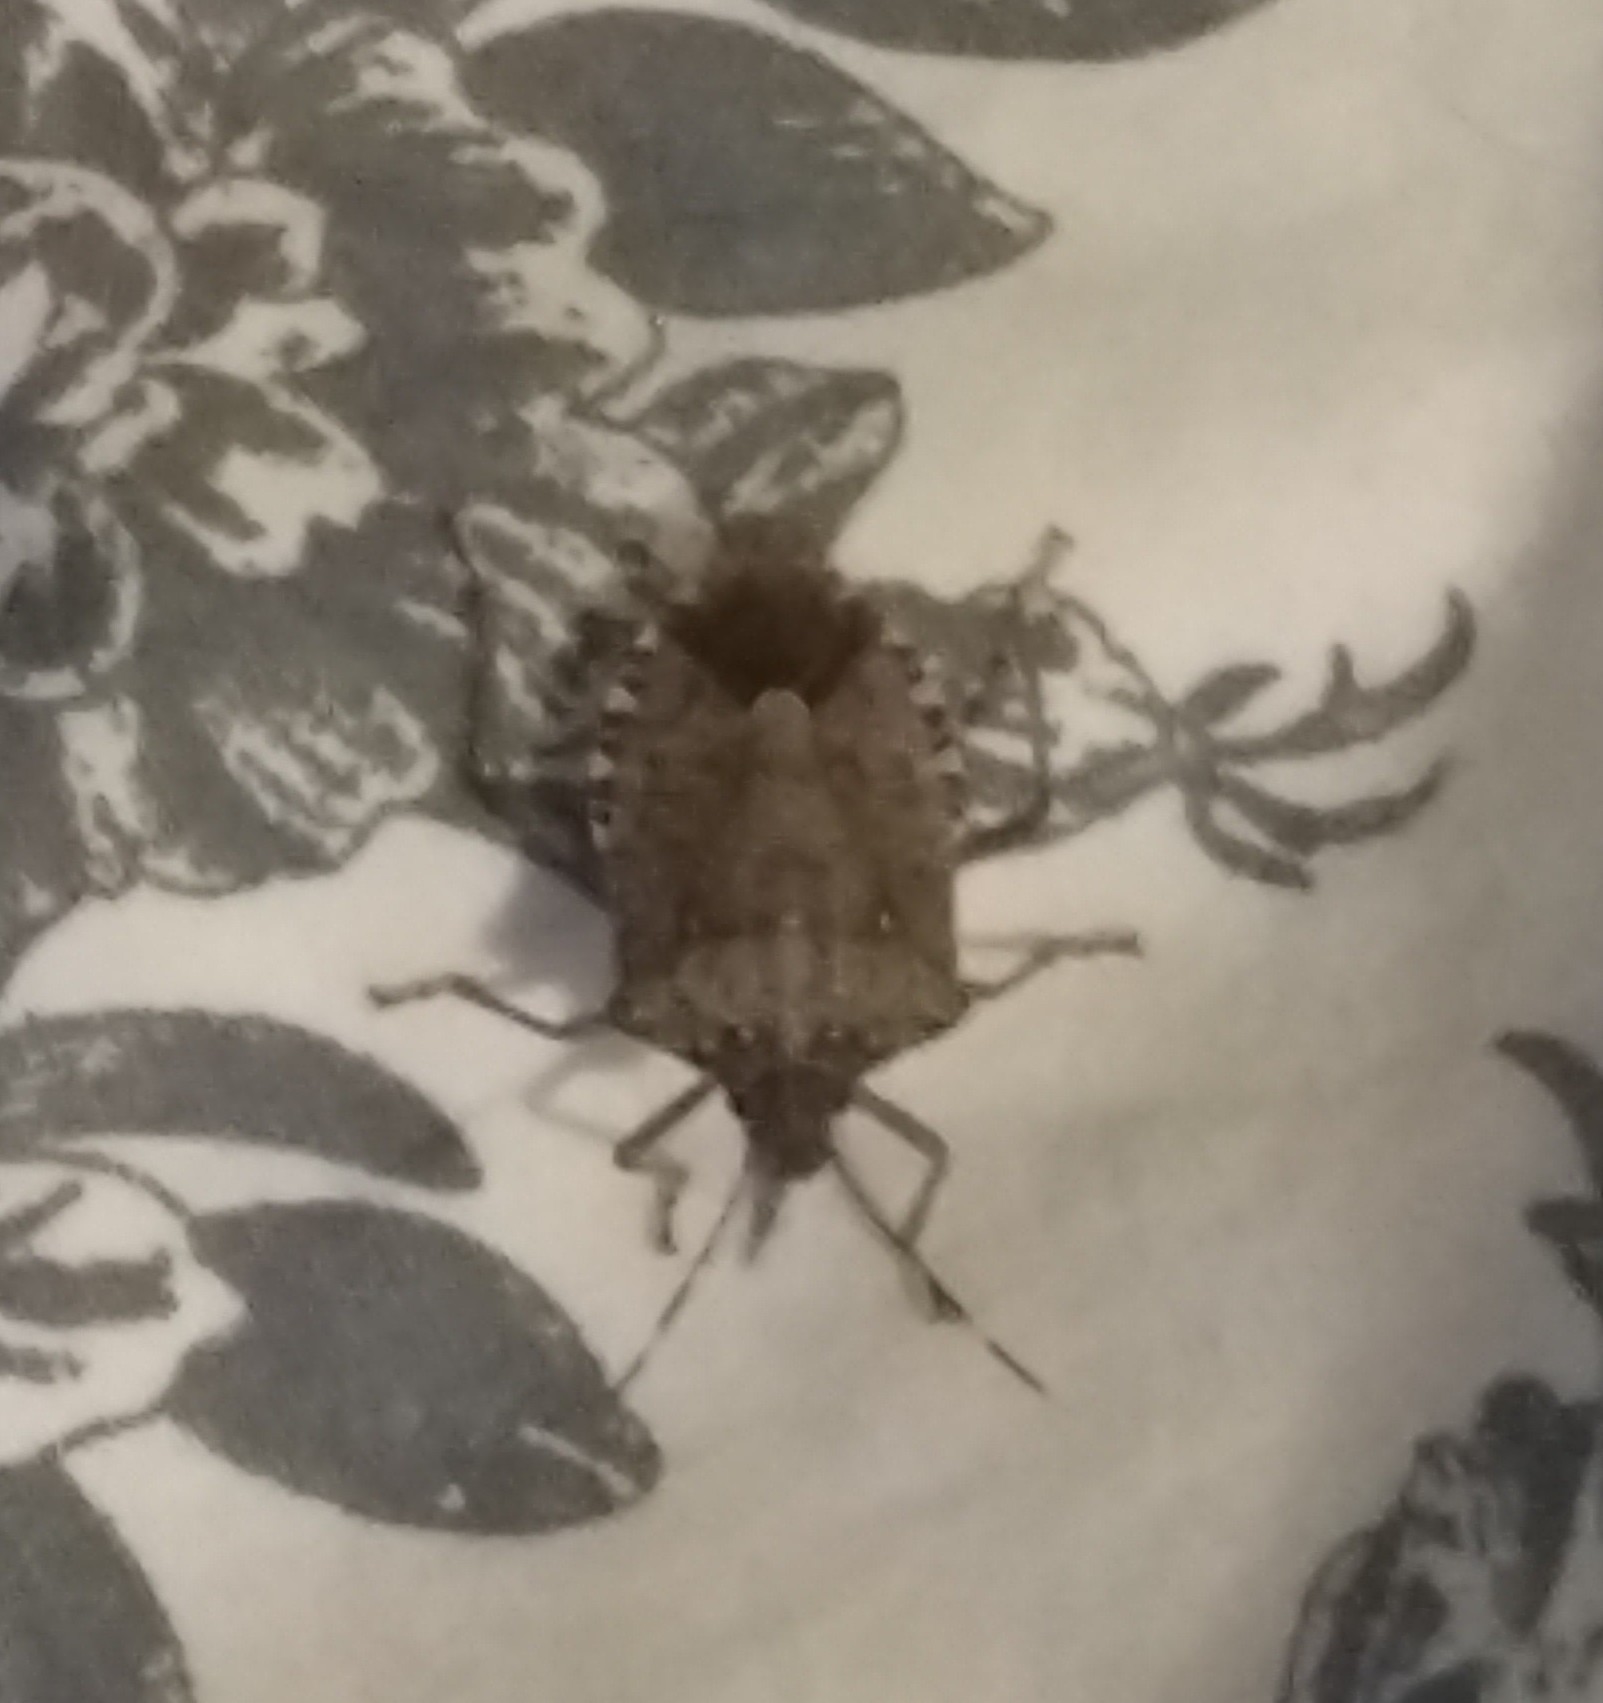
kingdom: Animalia
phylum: Arthropoda
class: Insecta
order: Hemiptera
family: Pentatomidae
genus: Halyomorpha
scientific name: Halyomorpha halys
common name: Brown marmorated stink bug
